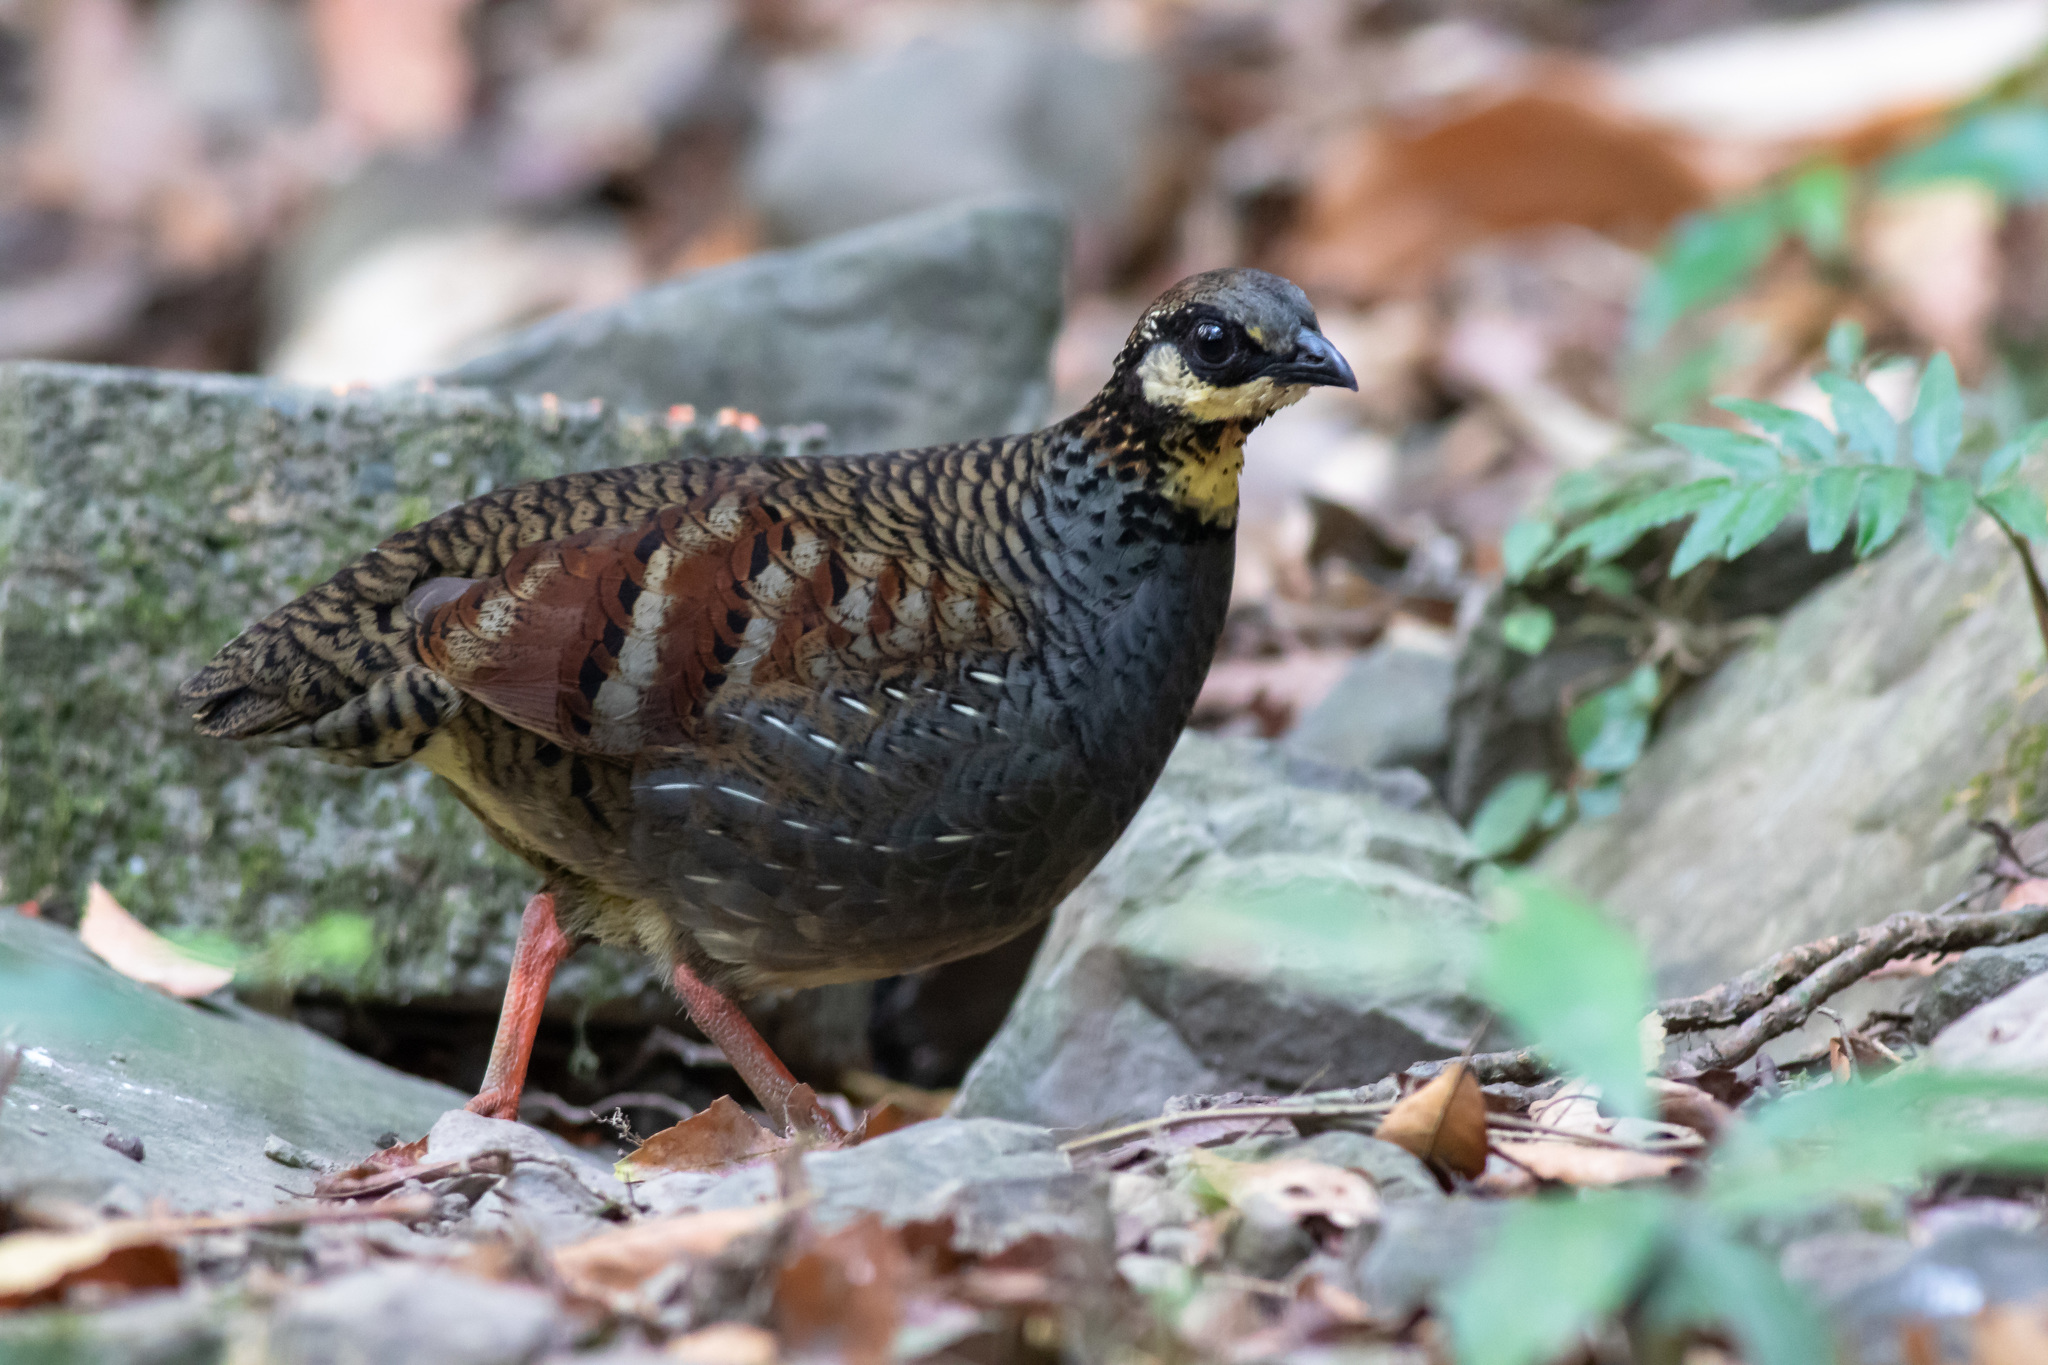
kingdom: Animalia
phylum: Chordata
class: Aves
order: Galliformes
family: Phasianidae
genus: Arborophila
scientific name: Arborophila crudigularis
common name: Taiwan partridge
